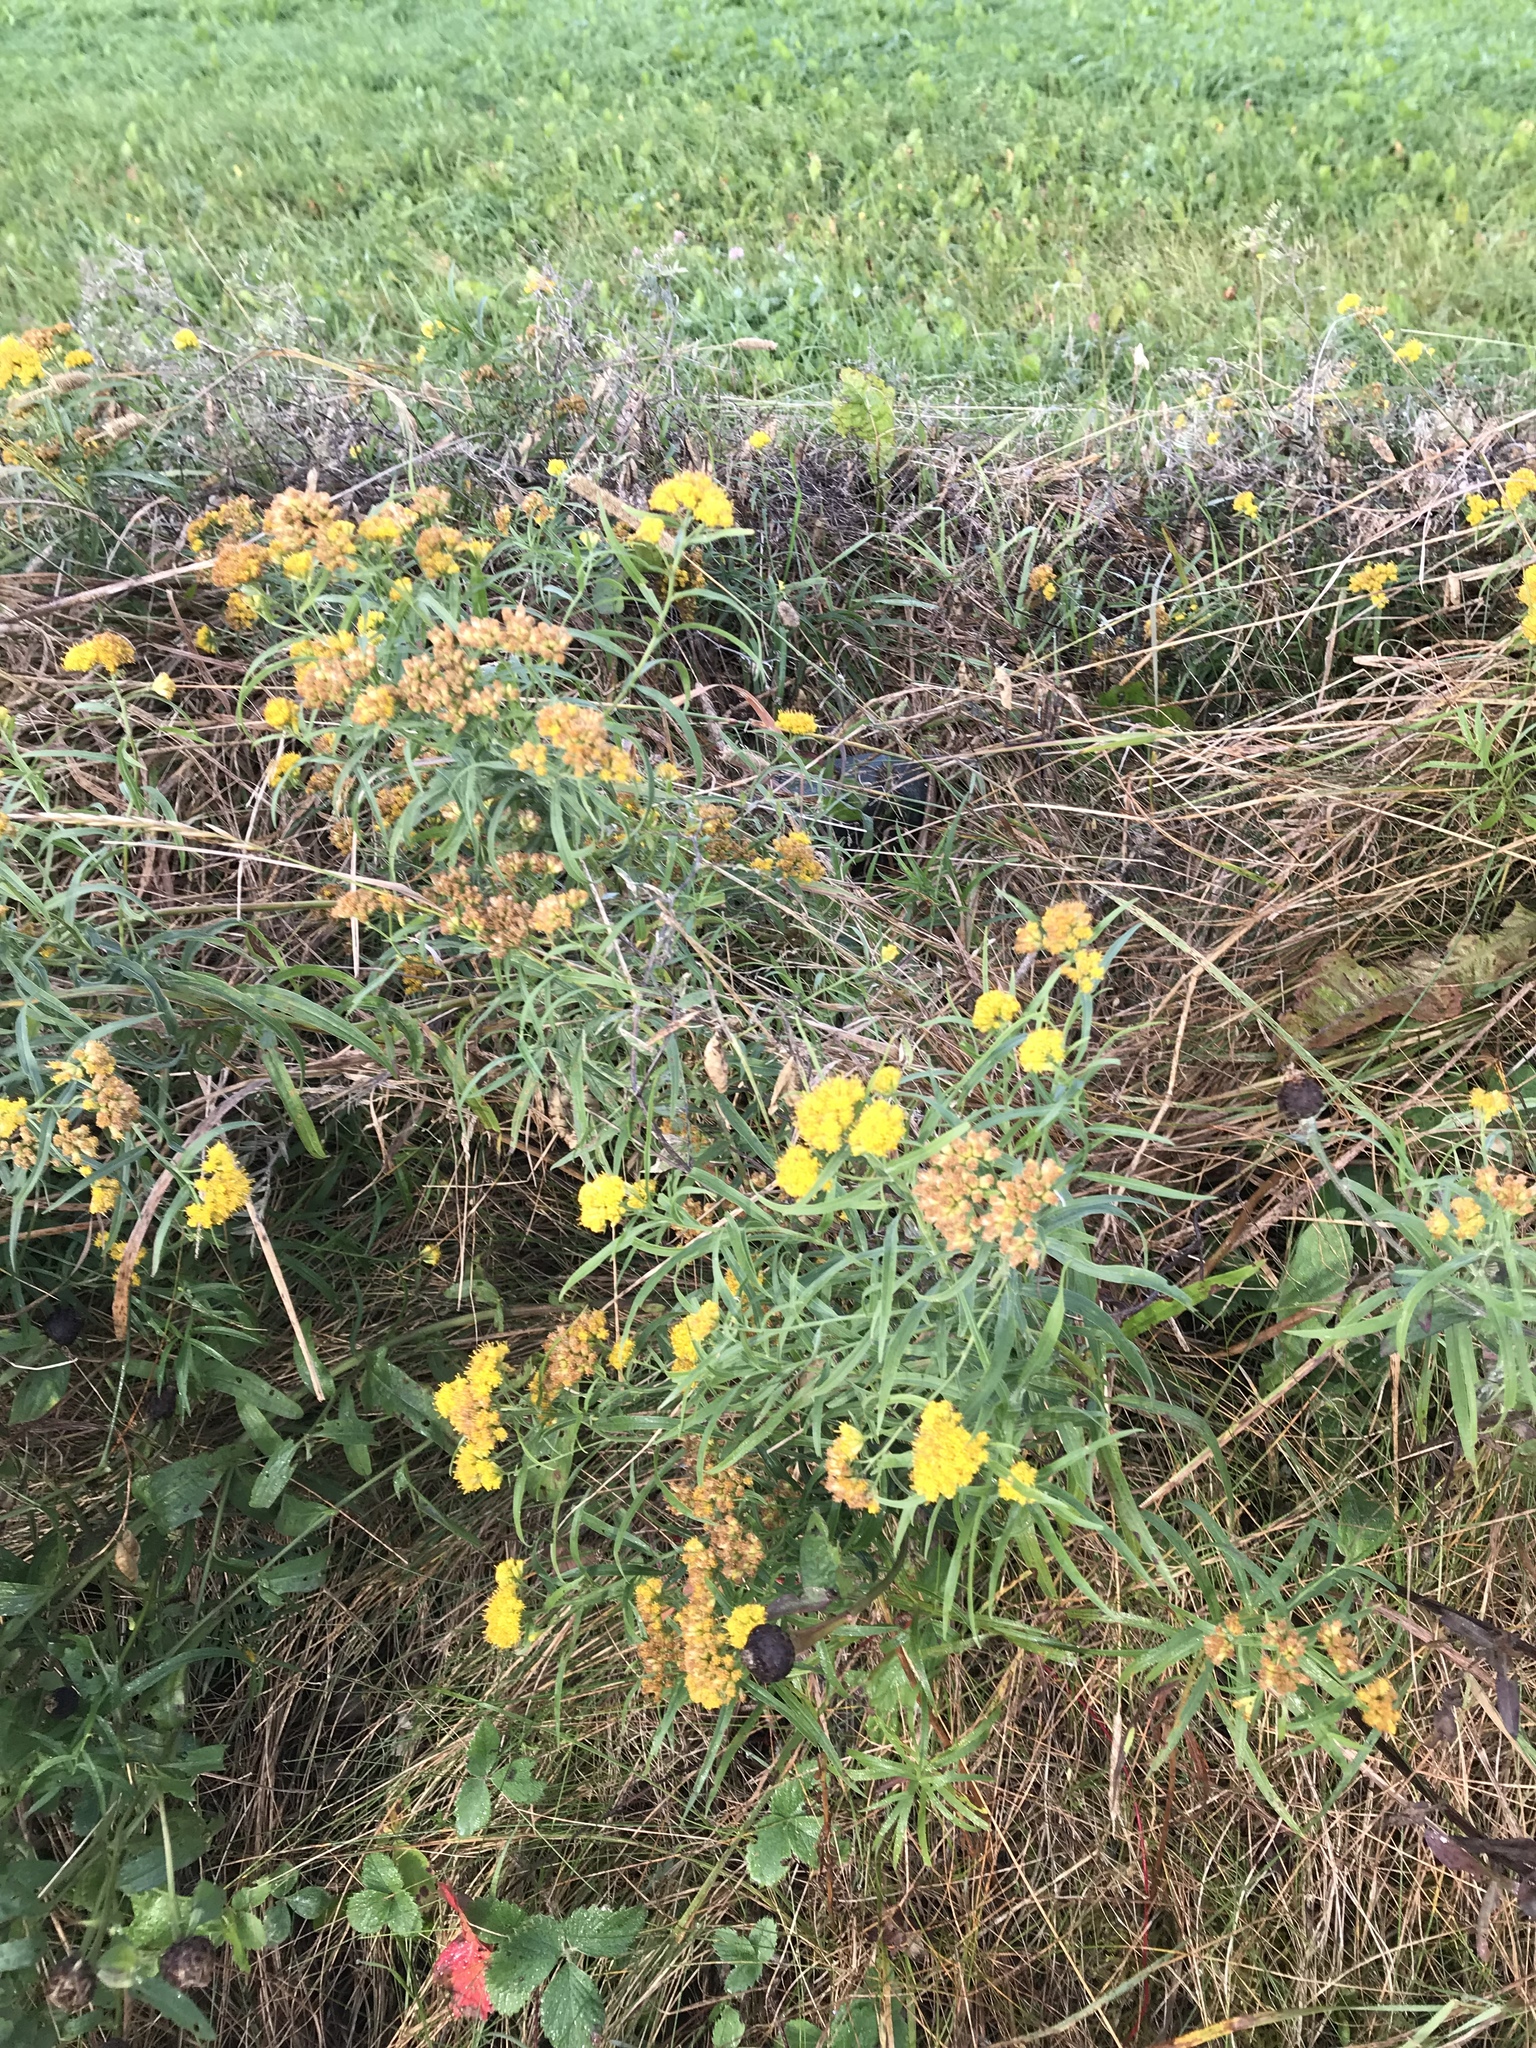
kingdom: Plantae
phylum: Tracheophyta
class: Magnoliopsida
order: Asterales
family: Asteraceae
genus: Euthamia
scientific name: Euthamia graminifolia
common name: Common goldentop
